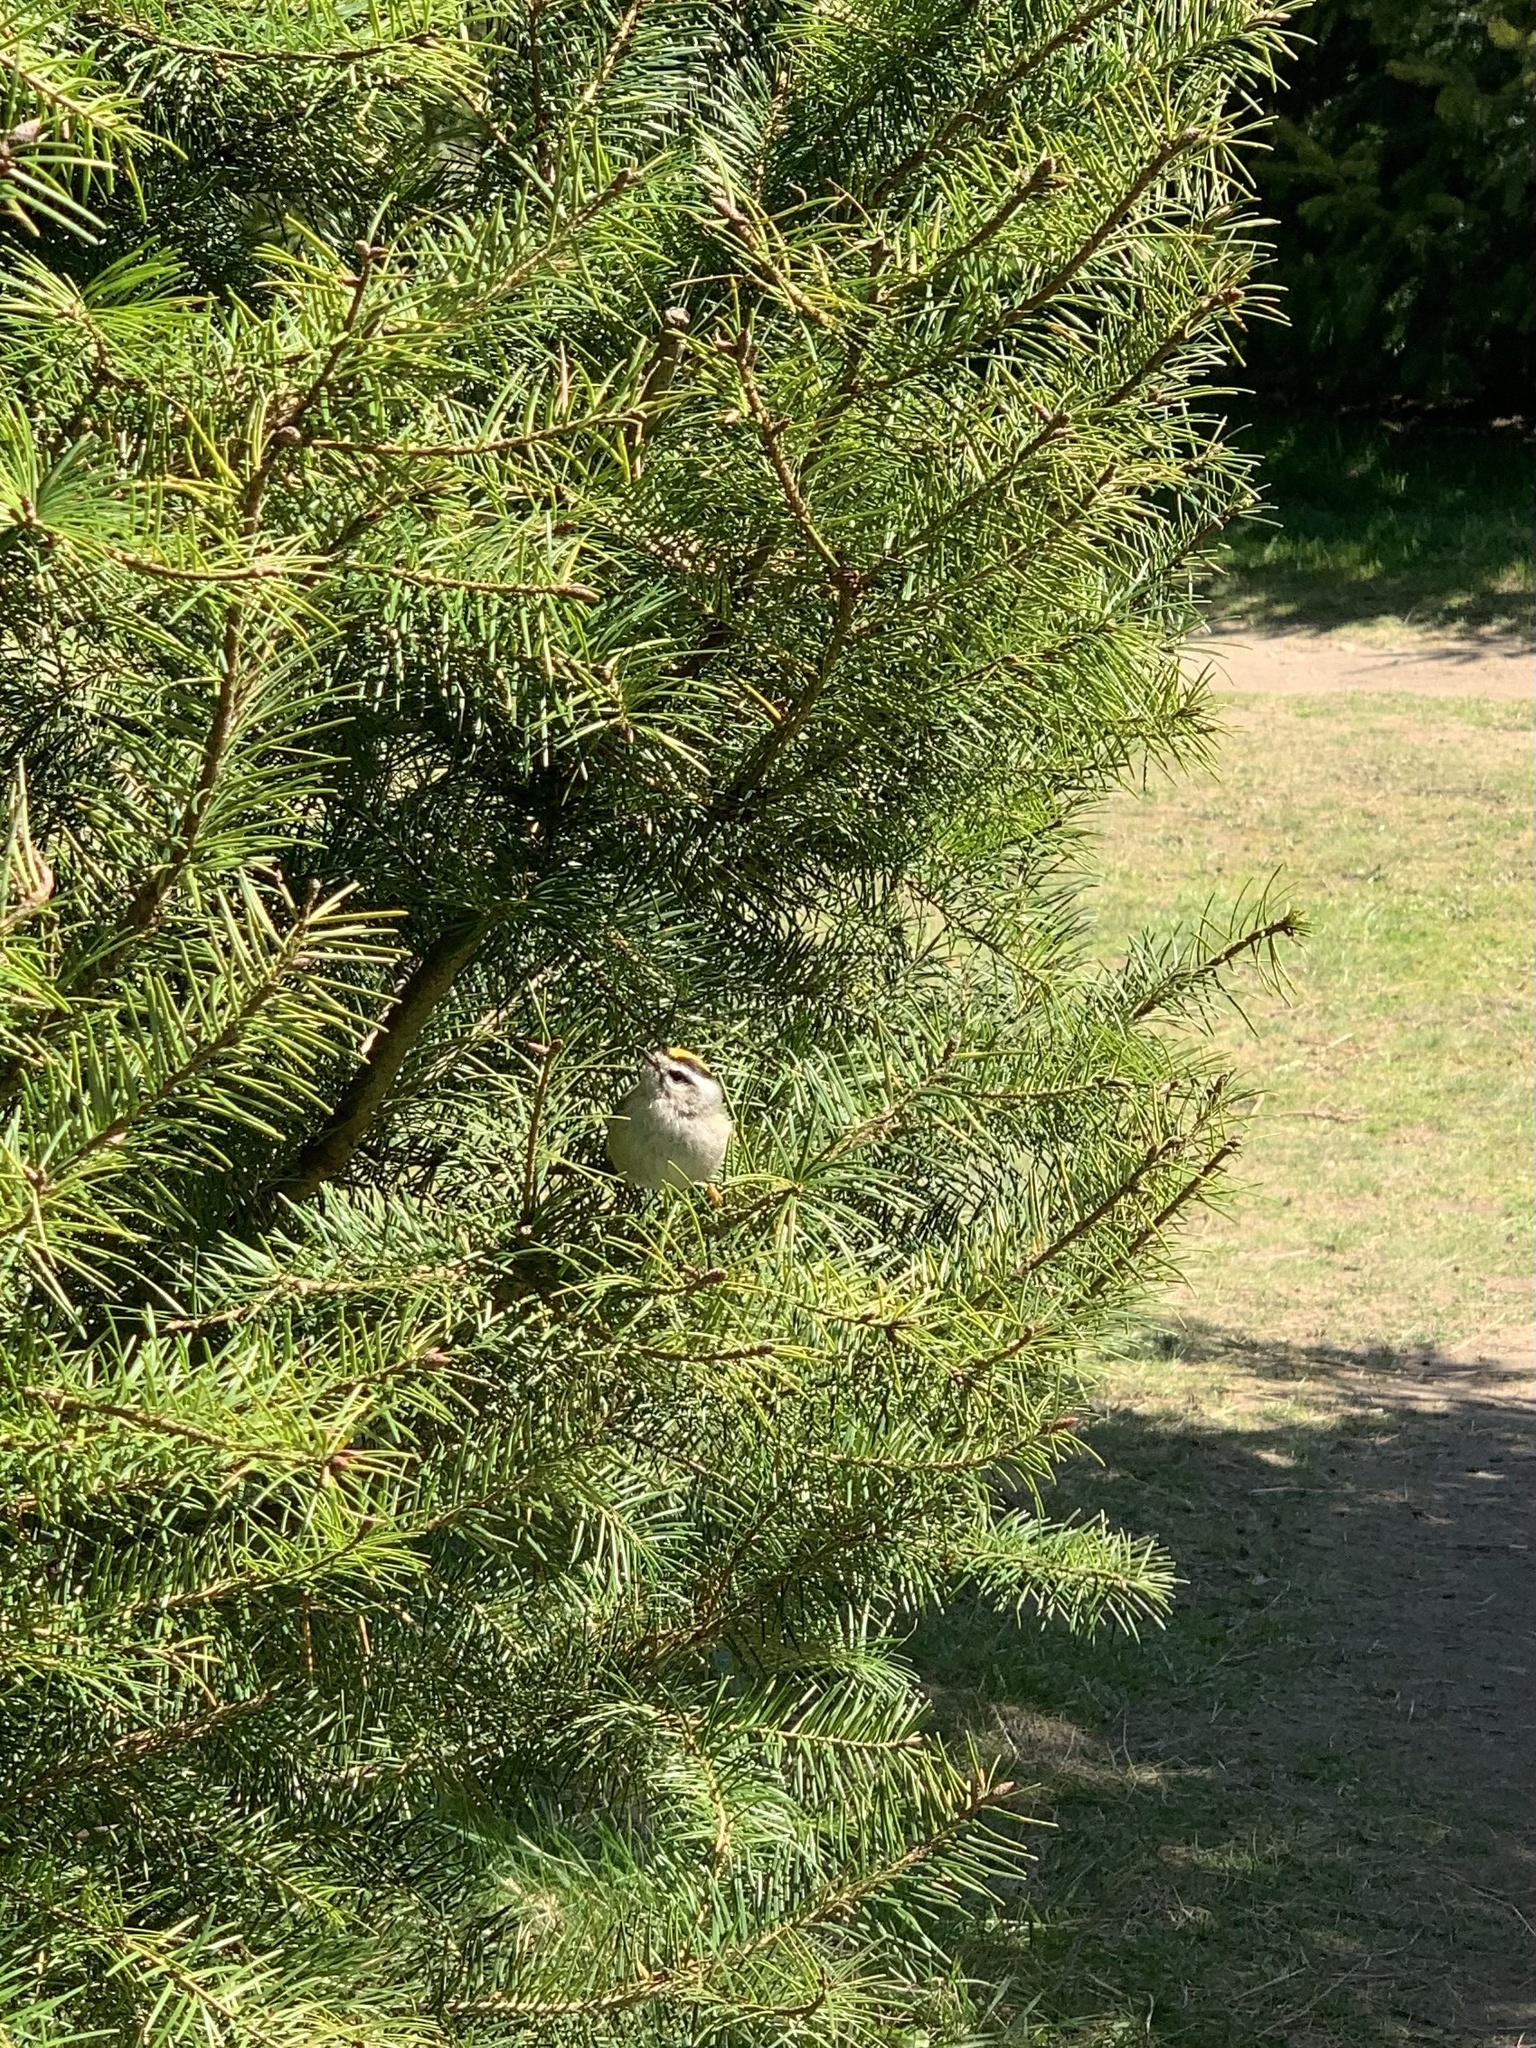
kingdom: Animalia
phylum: Chordata
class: Aves
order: Passeriformes
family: Regulidae
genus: Regulus
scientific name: Regulus satrapa
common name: Golden-crowned kinglet
